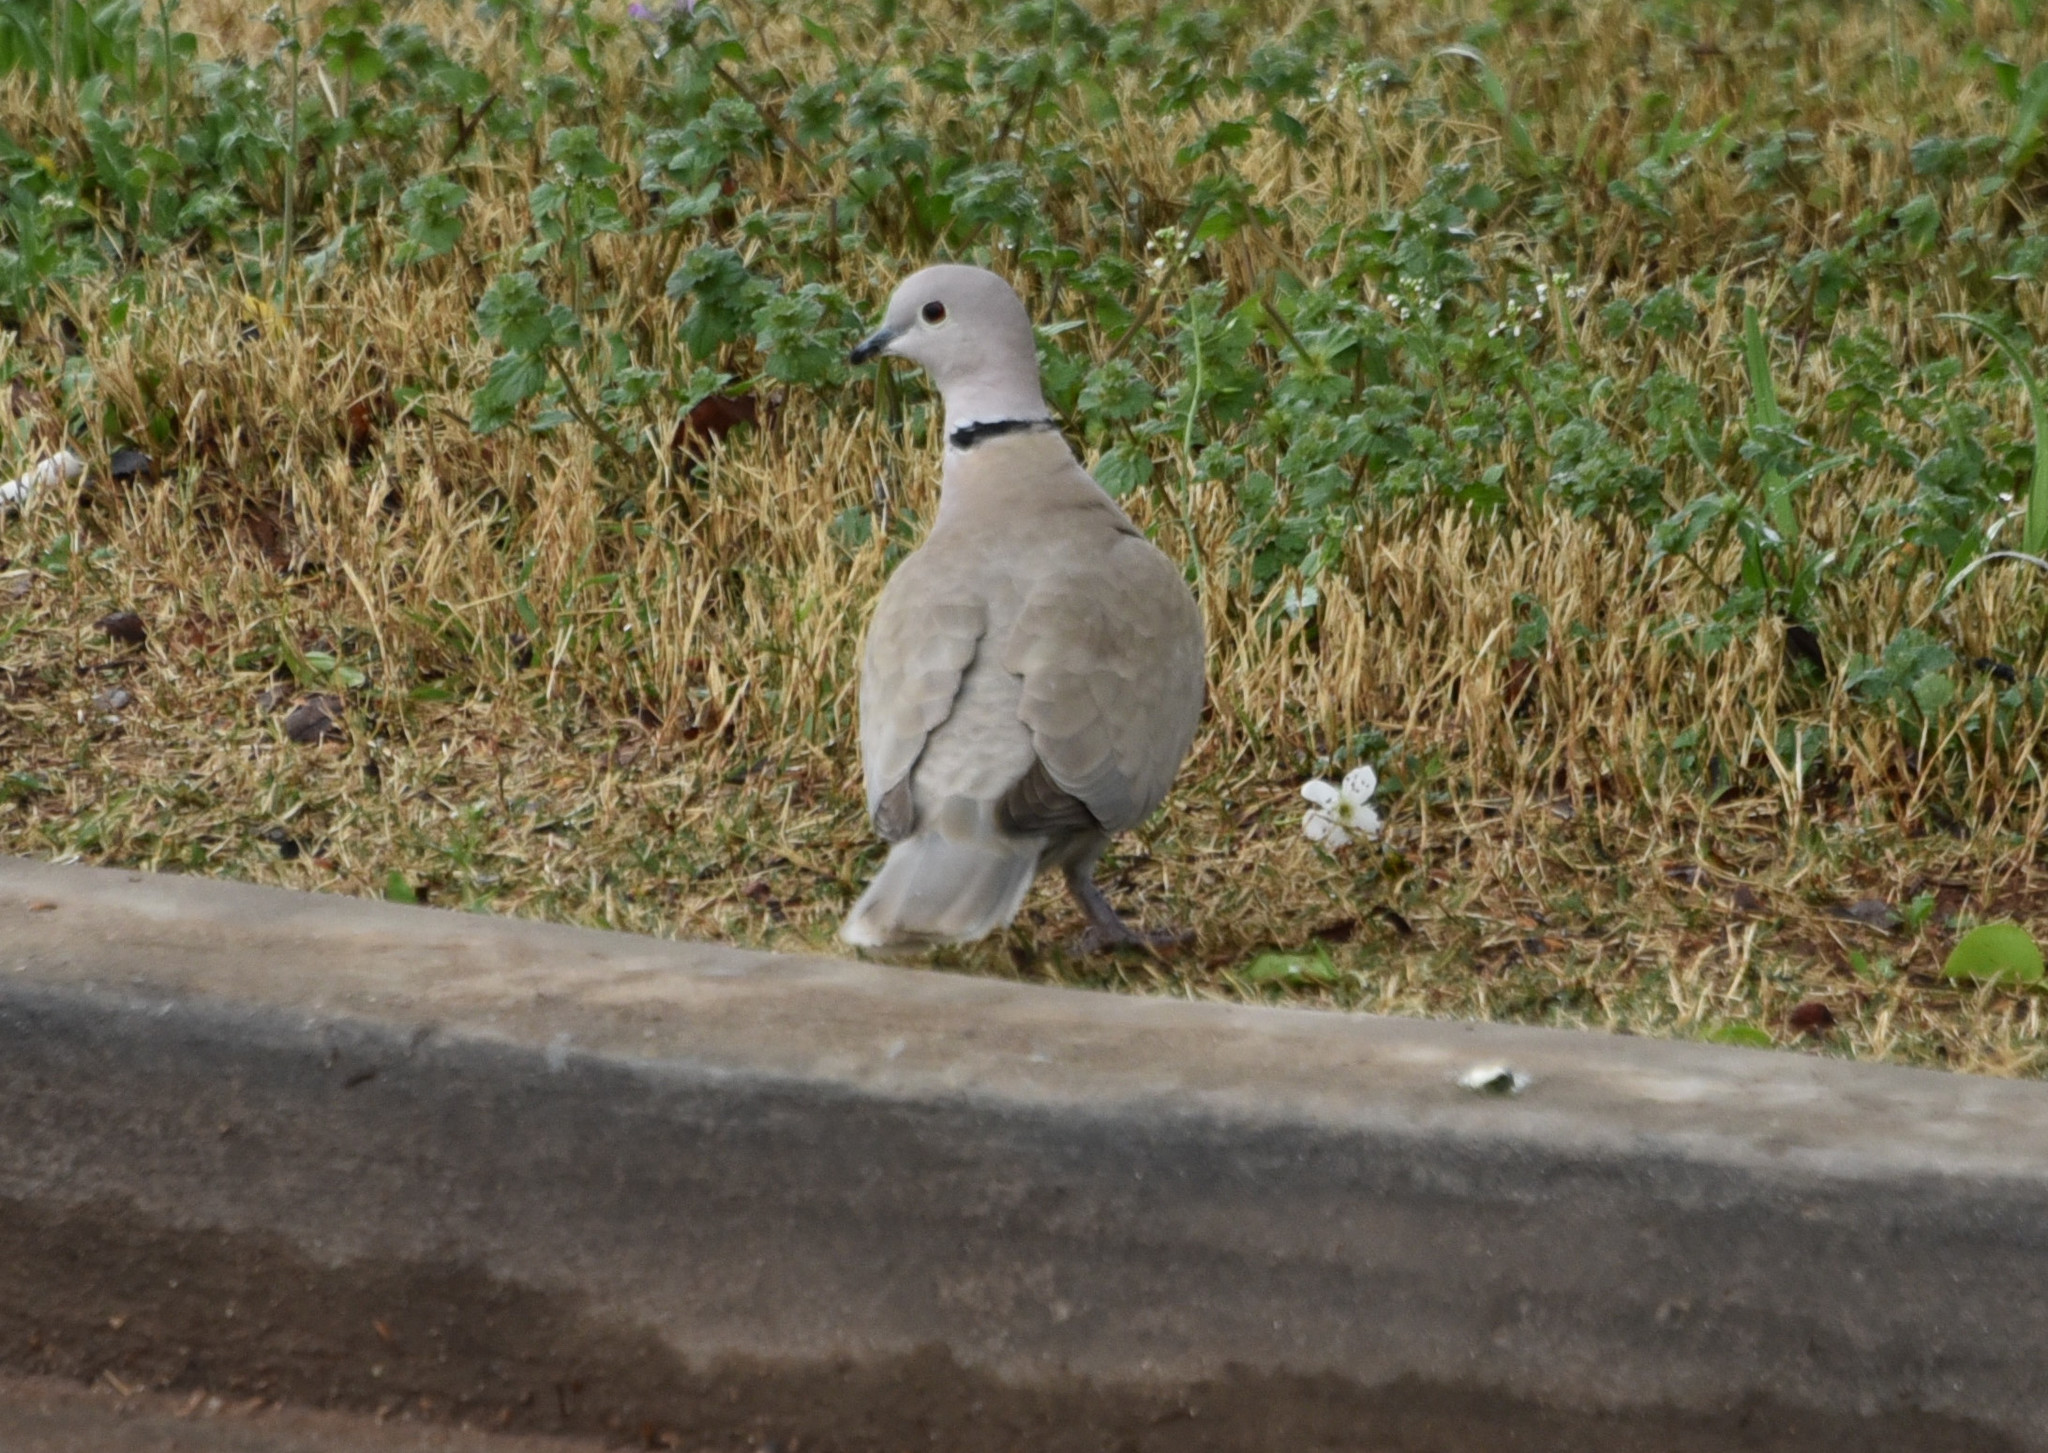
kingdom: Animalia
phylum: Chordata
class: Aves
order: Columbiformes
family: Columbidae
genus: Streptopelia
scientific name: Streptopelia decaocto
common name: Eurasian collared dove
